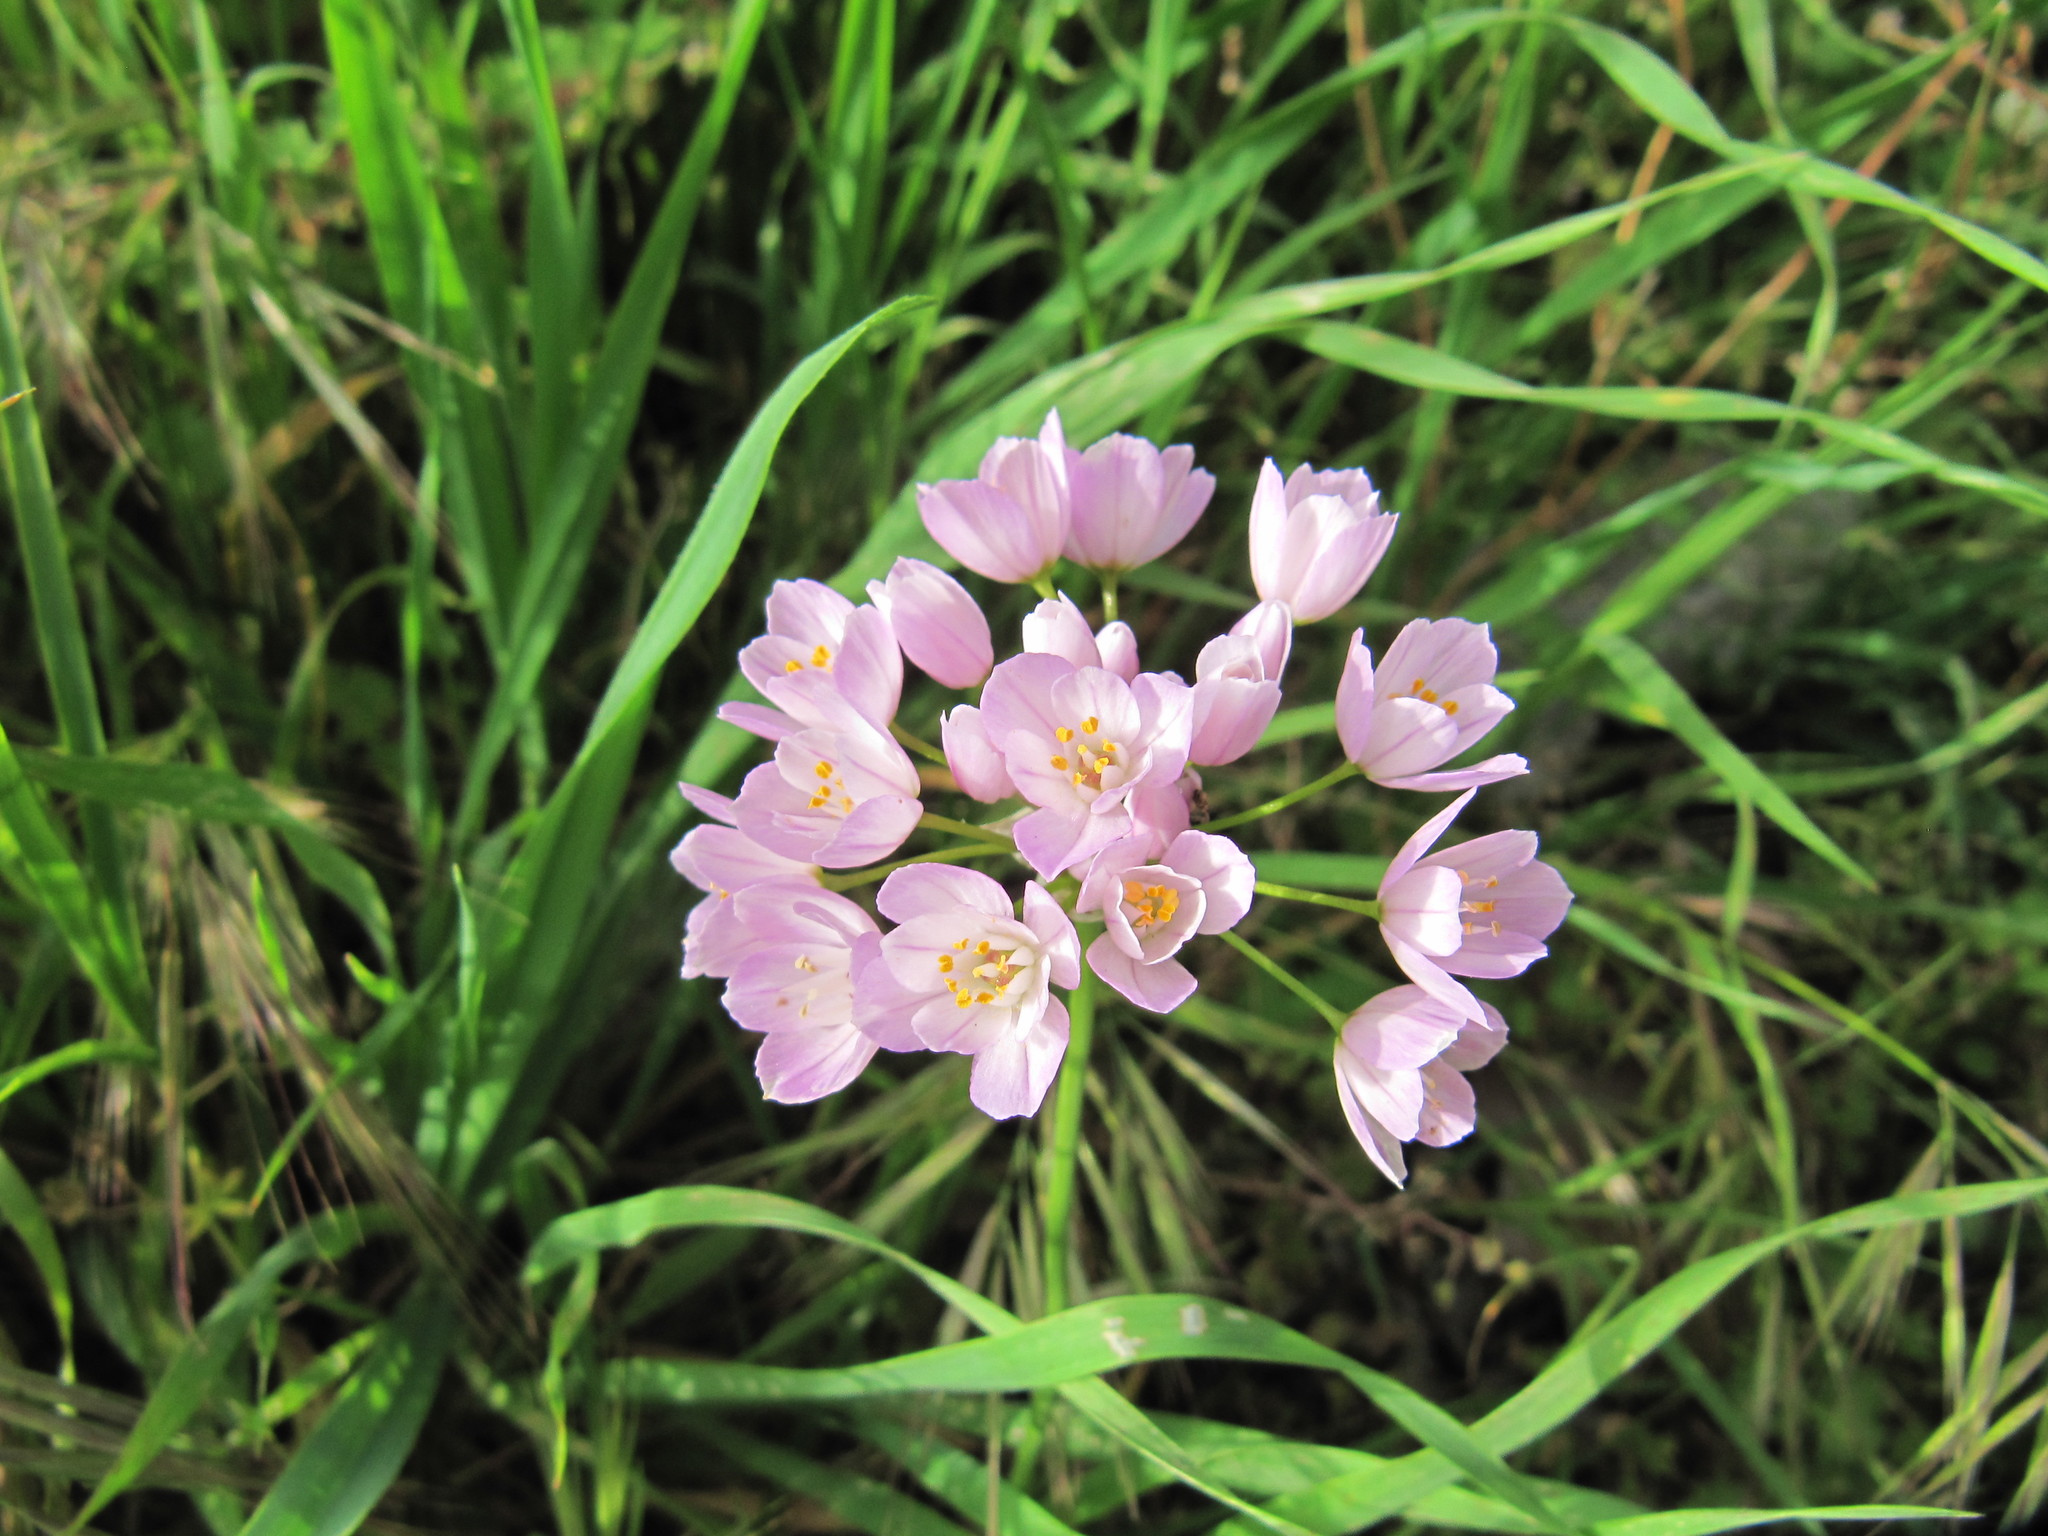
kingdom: Plantae
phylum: Tracheophyta
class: Liliopsida
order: Asparagales
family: Amaryllidaceae
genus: Allium
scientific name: Allium roseum
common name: Rosy garlic
